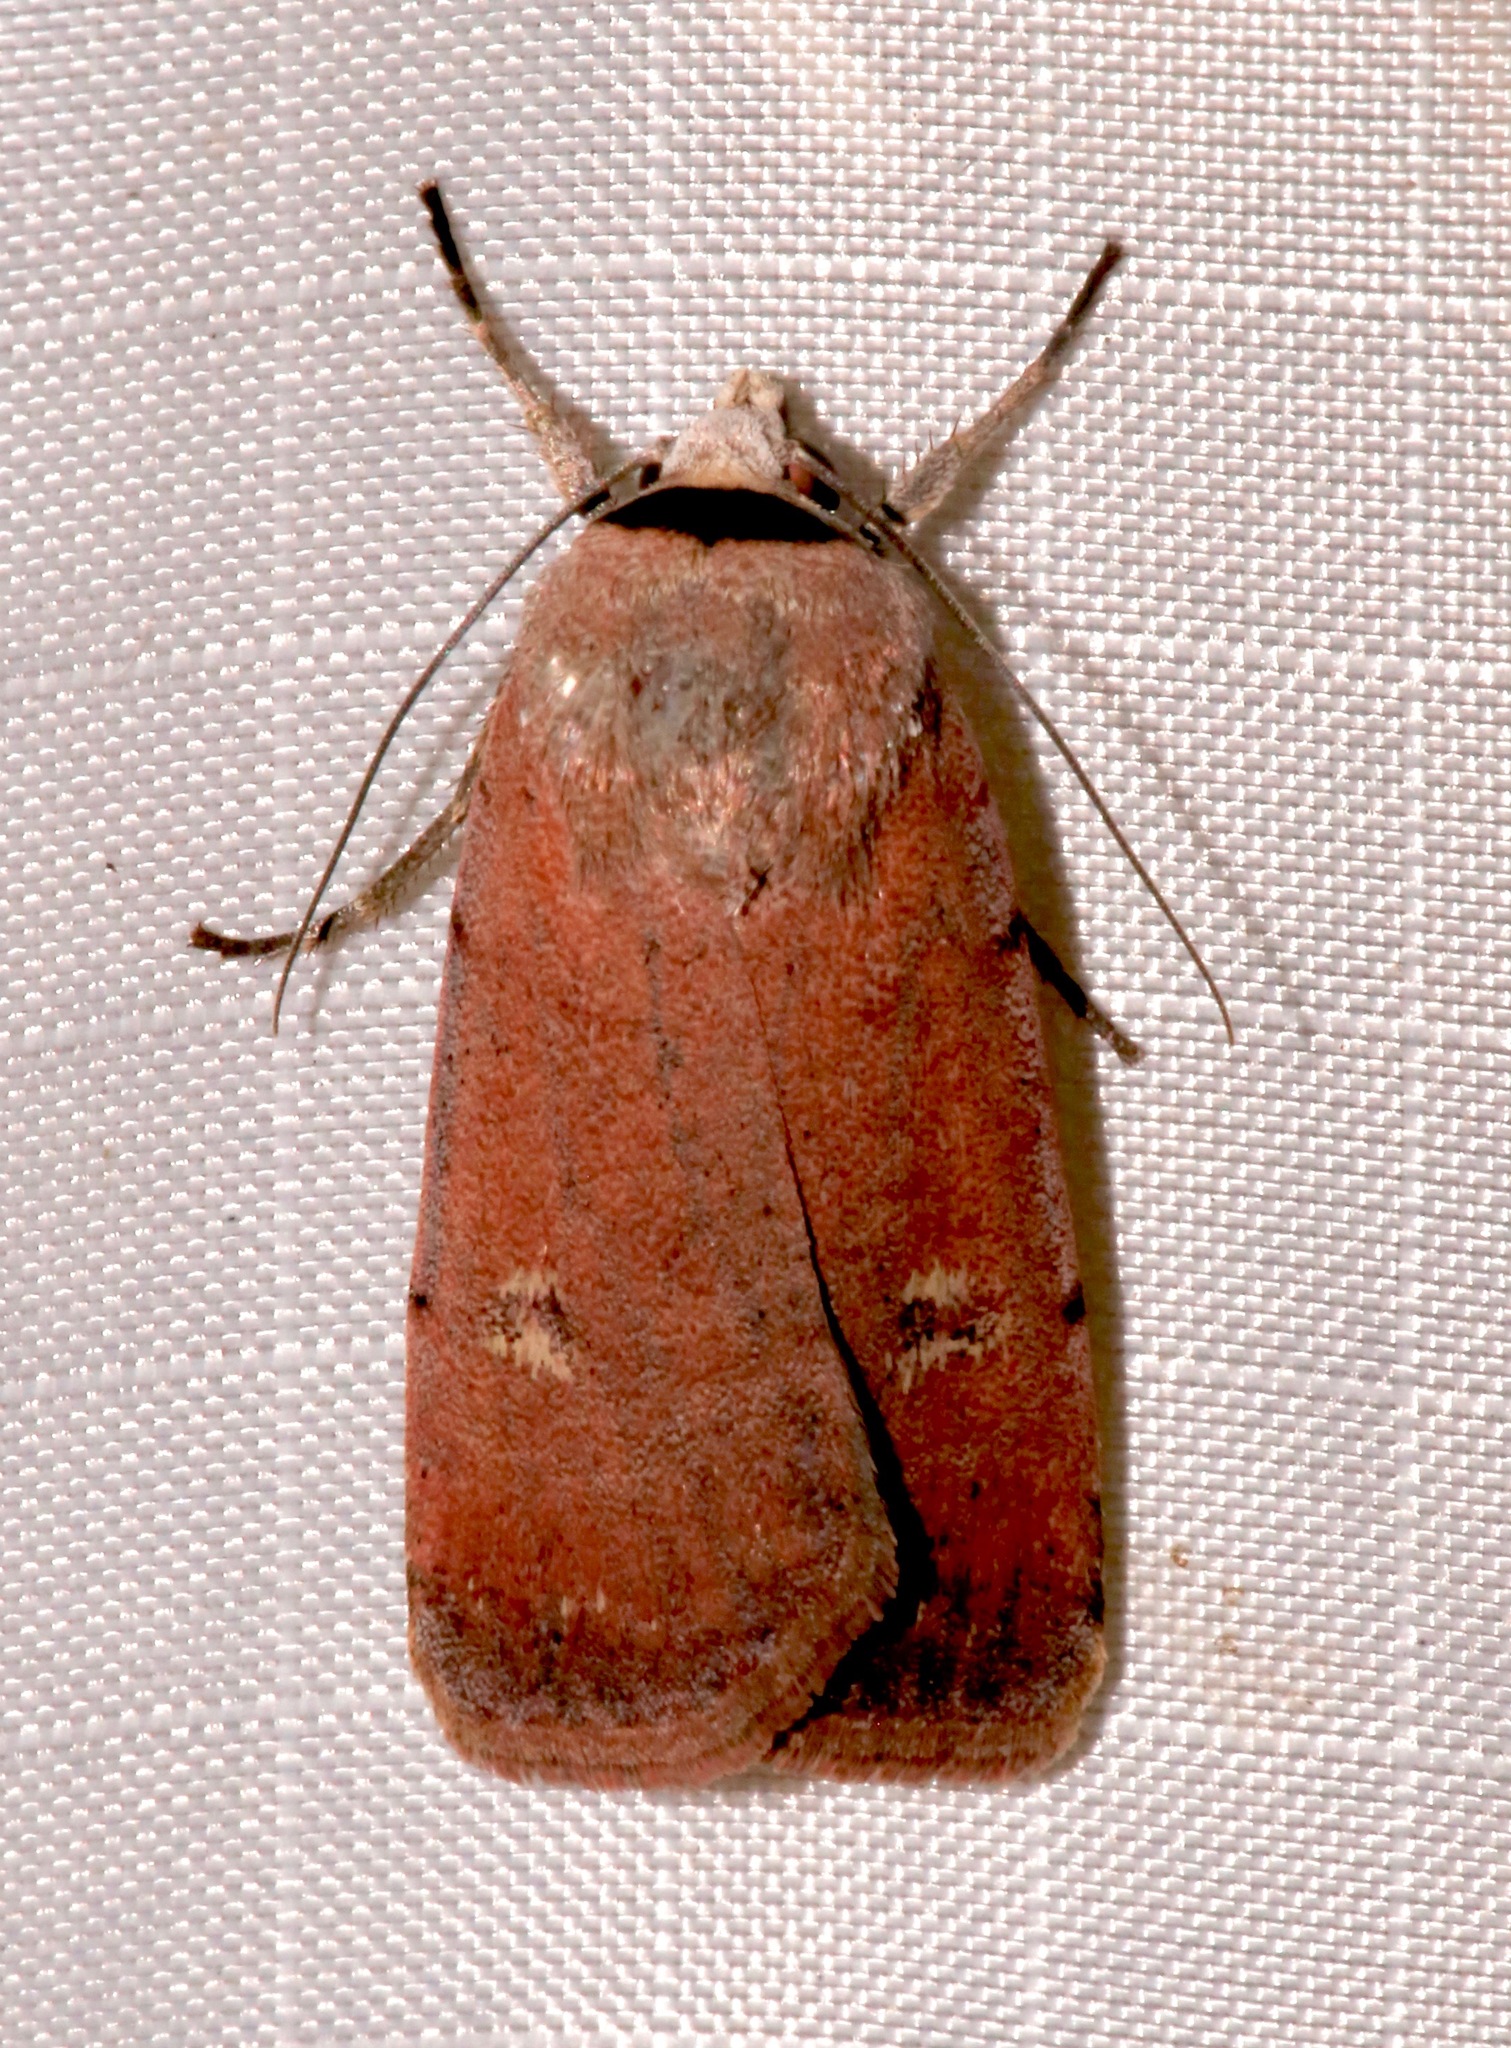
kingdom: Animalia
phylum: Arthropoda
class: Insecta
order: Lepidoptera
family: Noctuidae
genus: Anicla
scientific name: Anicla biformata
